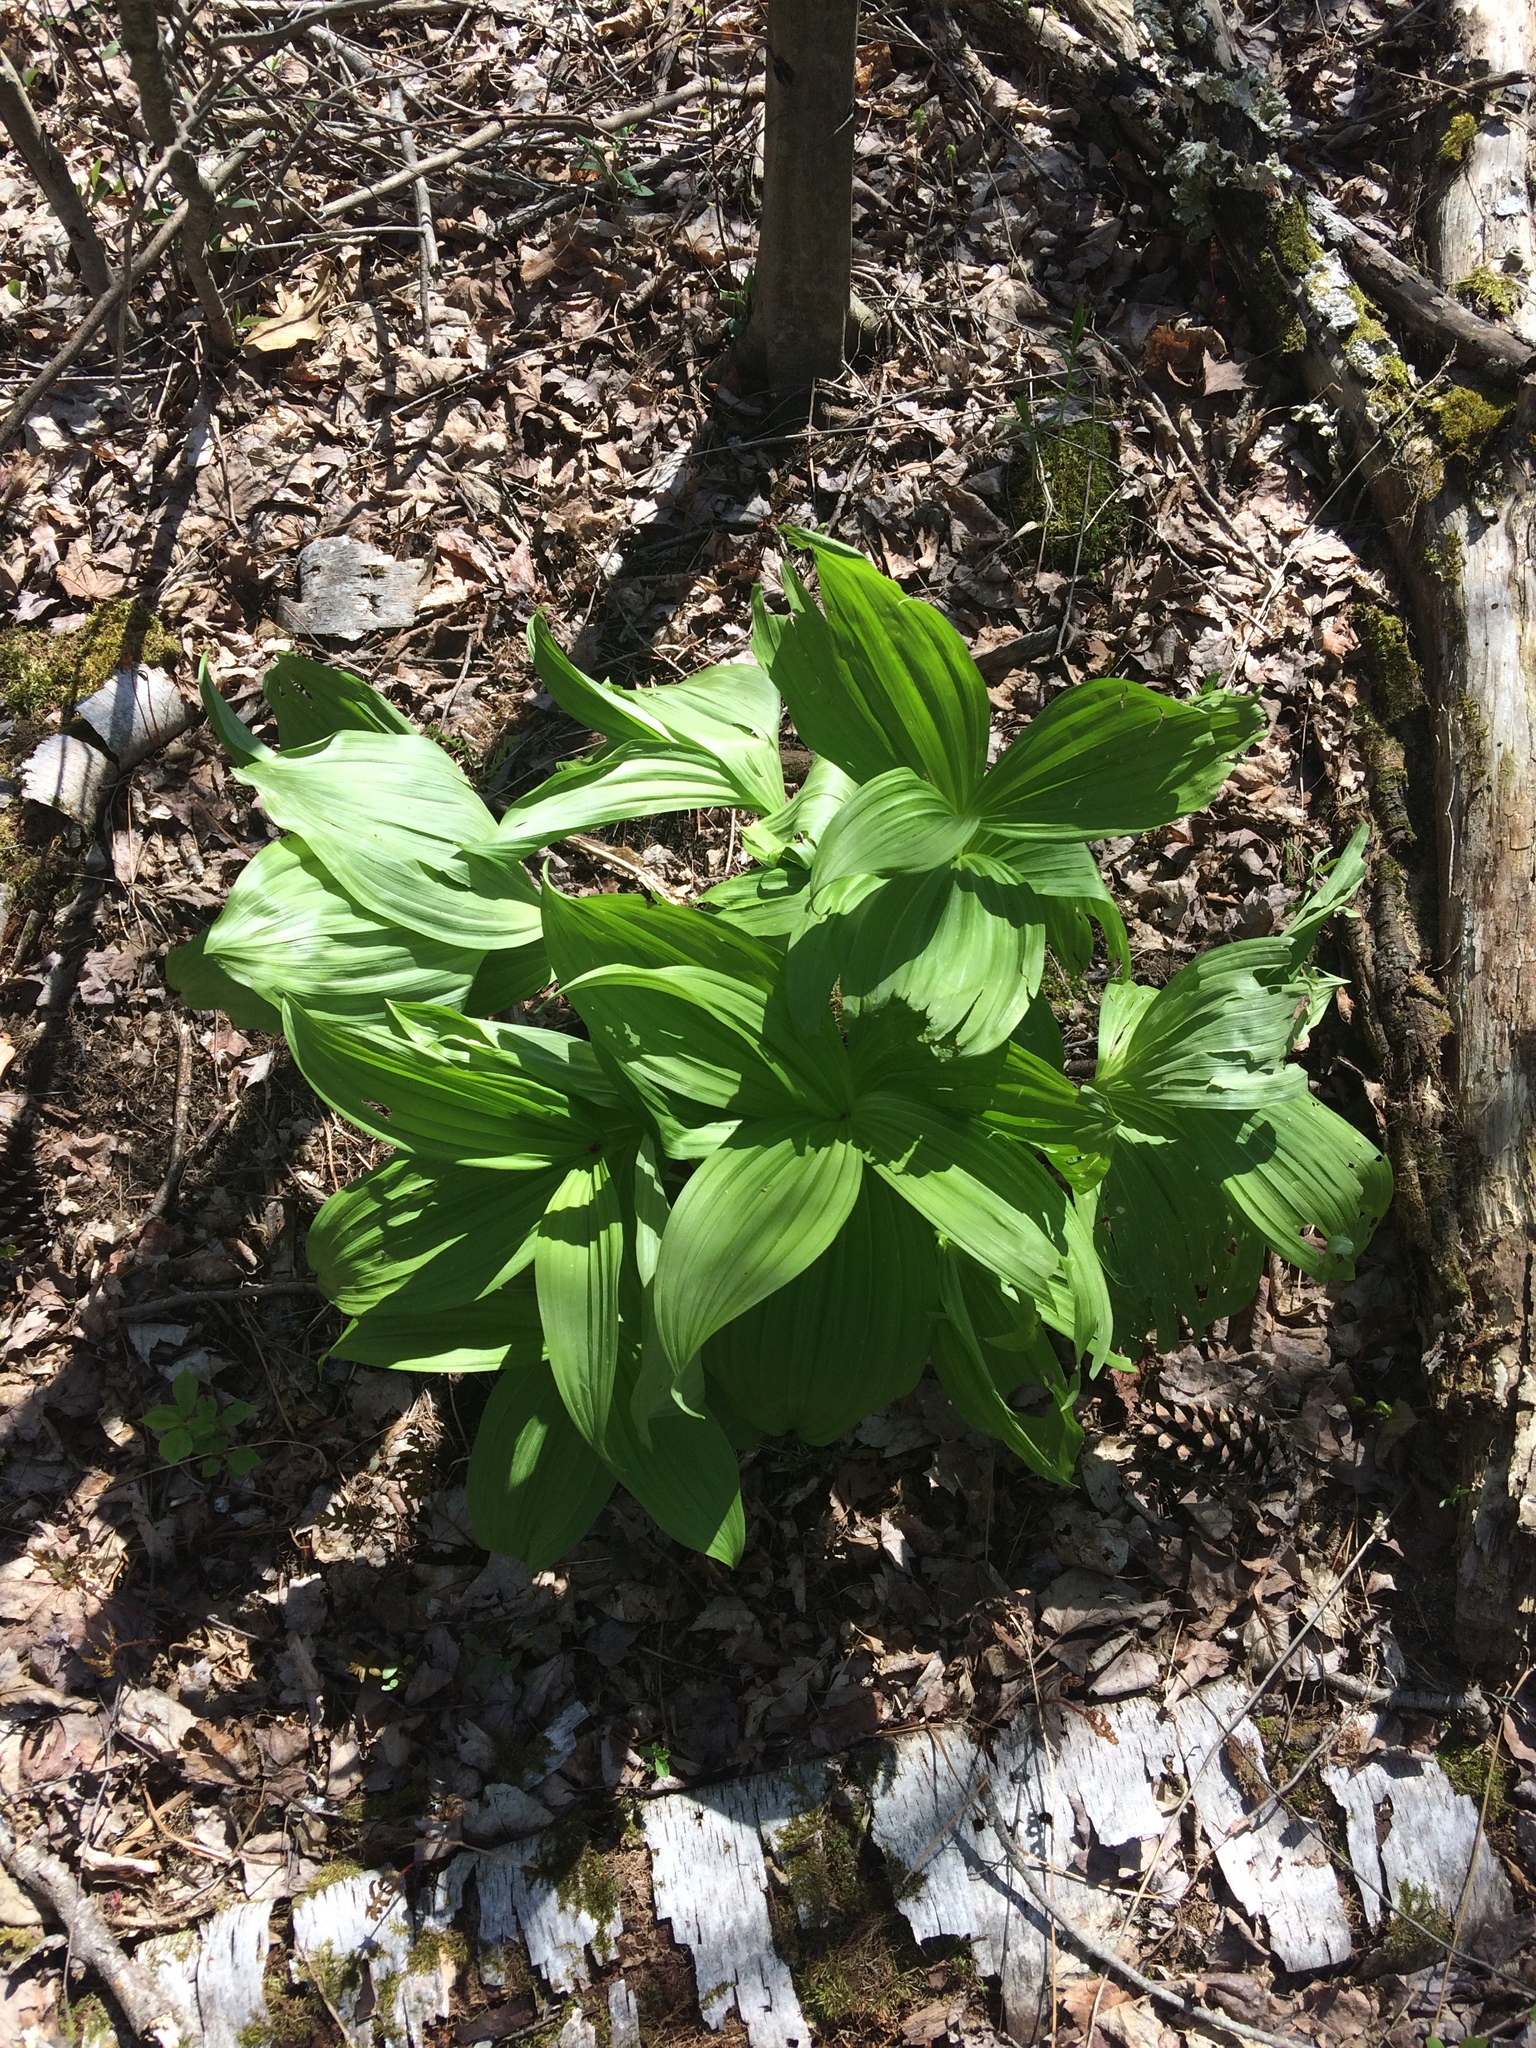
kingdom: Plantae
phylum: Tracheophyta
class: Liliopsida
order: Liliales
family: Melanthiaceae
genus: Veratrum
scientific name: Veratrum viride
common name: American false hellebore
